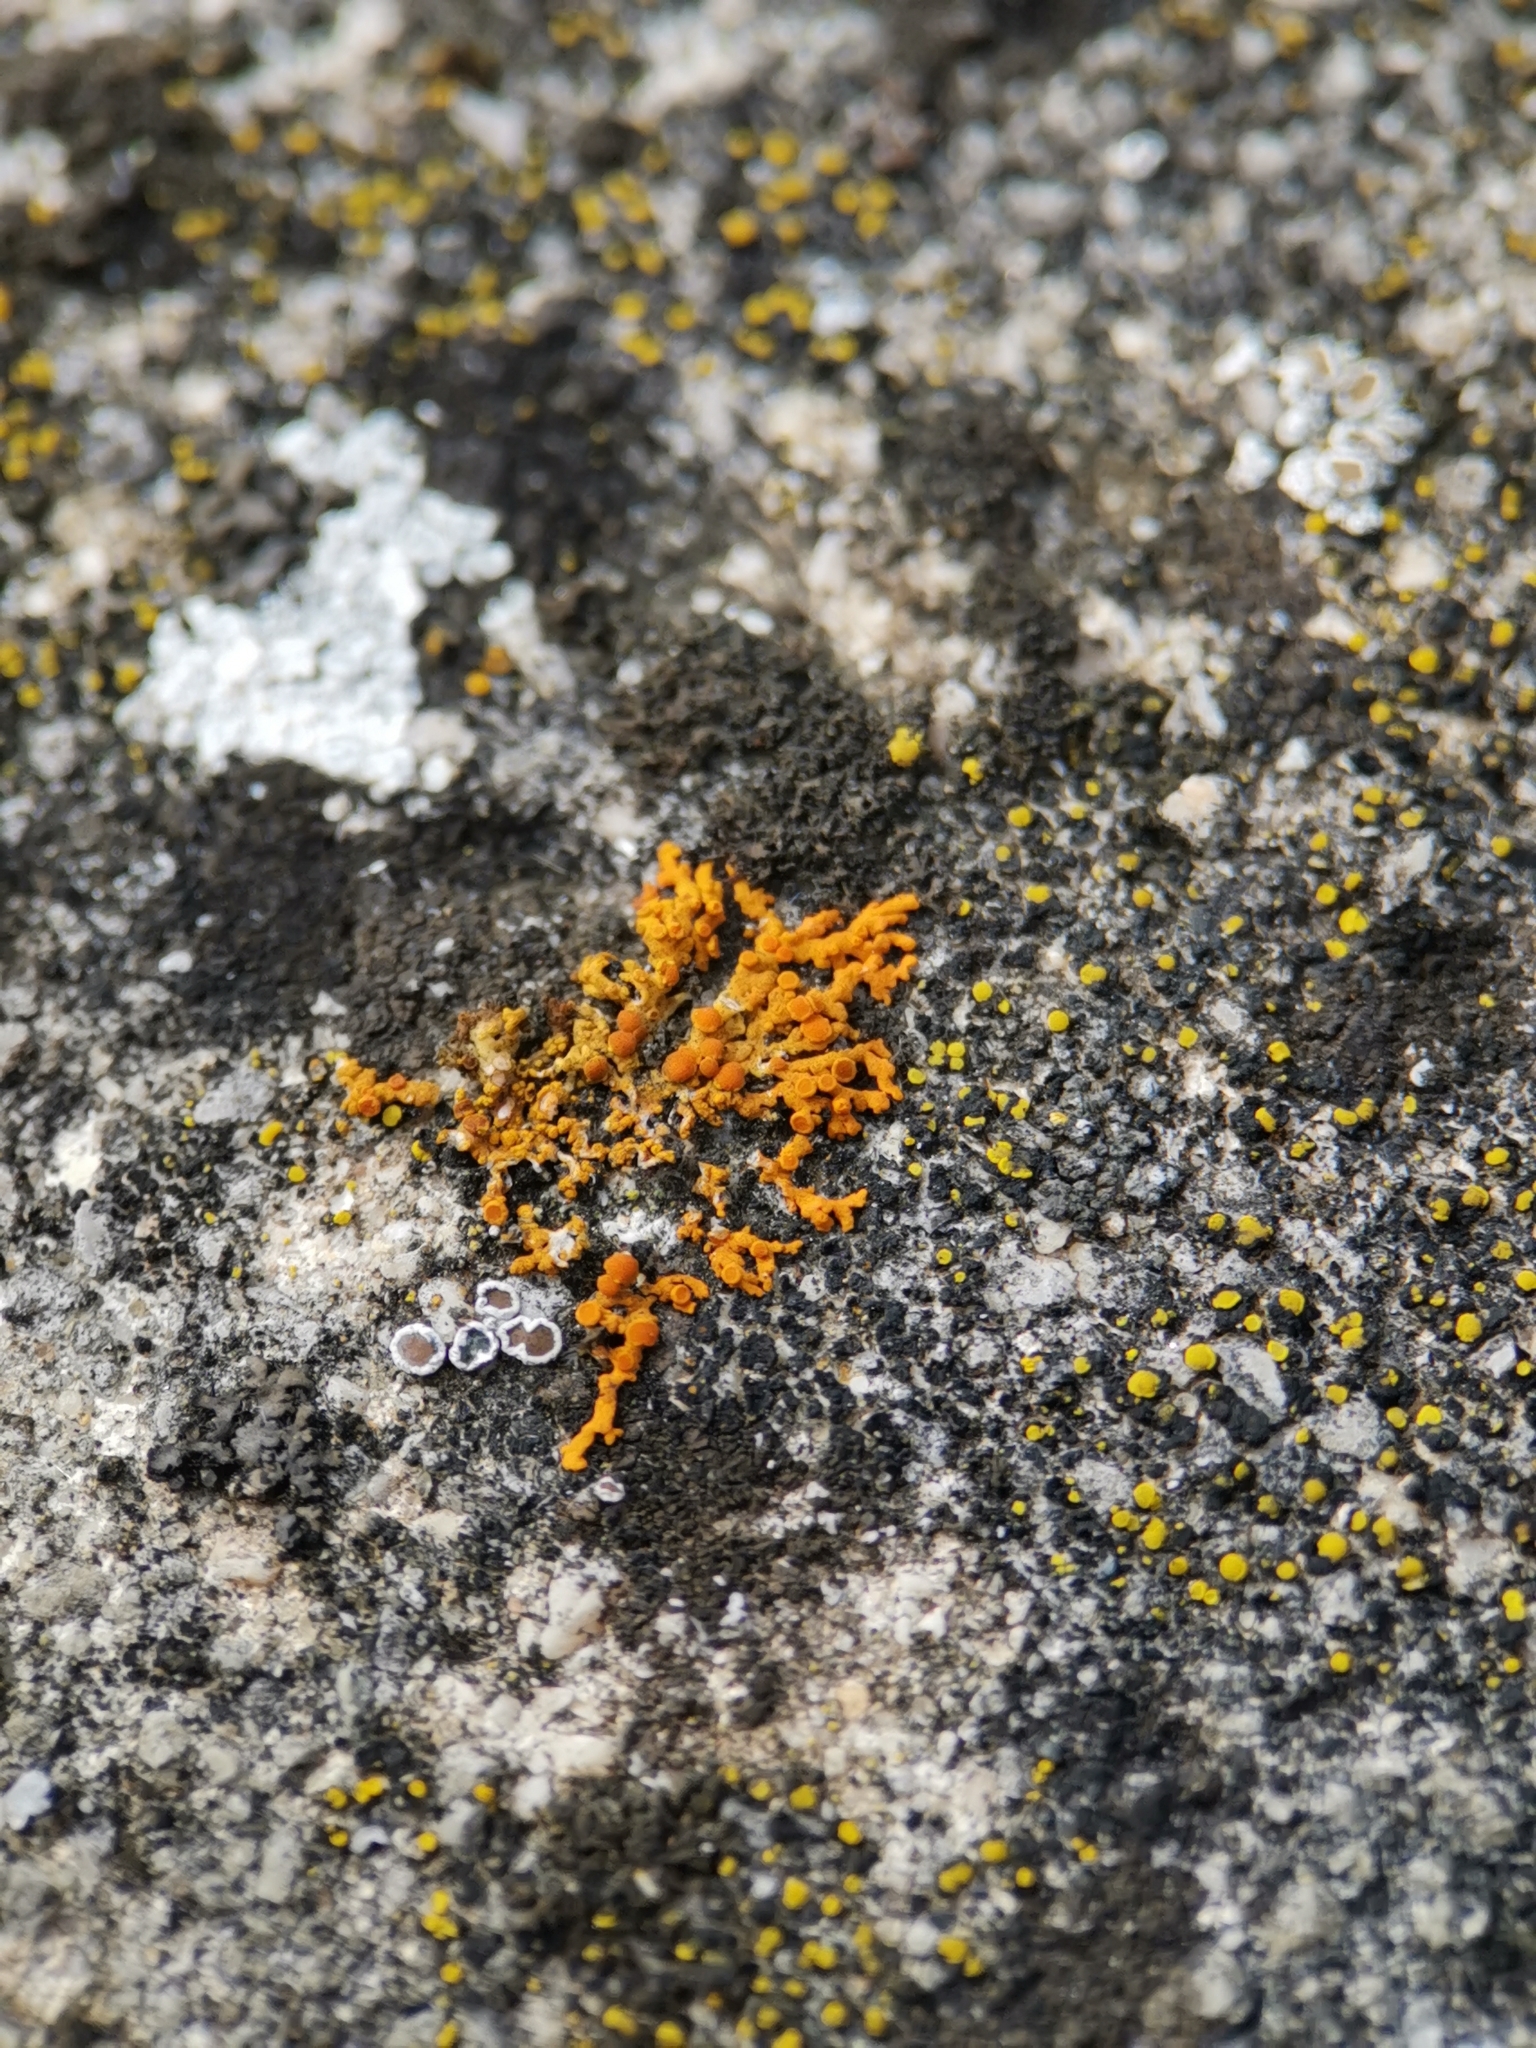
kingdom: Fungi
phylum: Ascomycota
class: Lecanoromycetes
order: Teloschistales
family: Teloschistaceae
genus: Xanthoria
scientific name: Xanthoria elegans
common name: Elegant sunburst lichen
